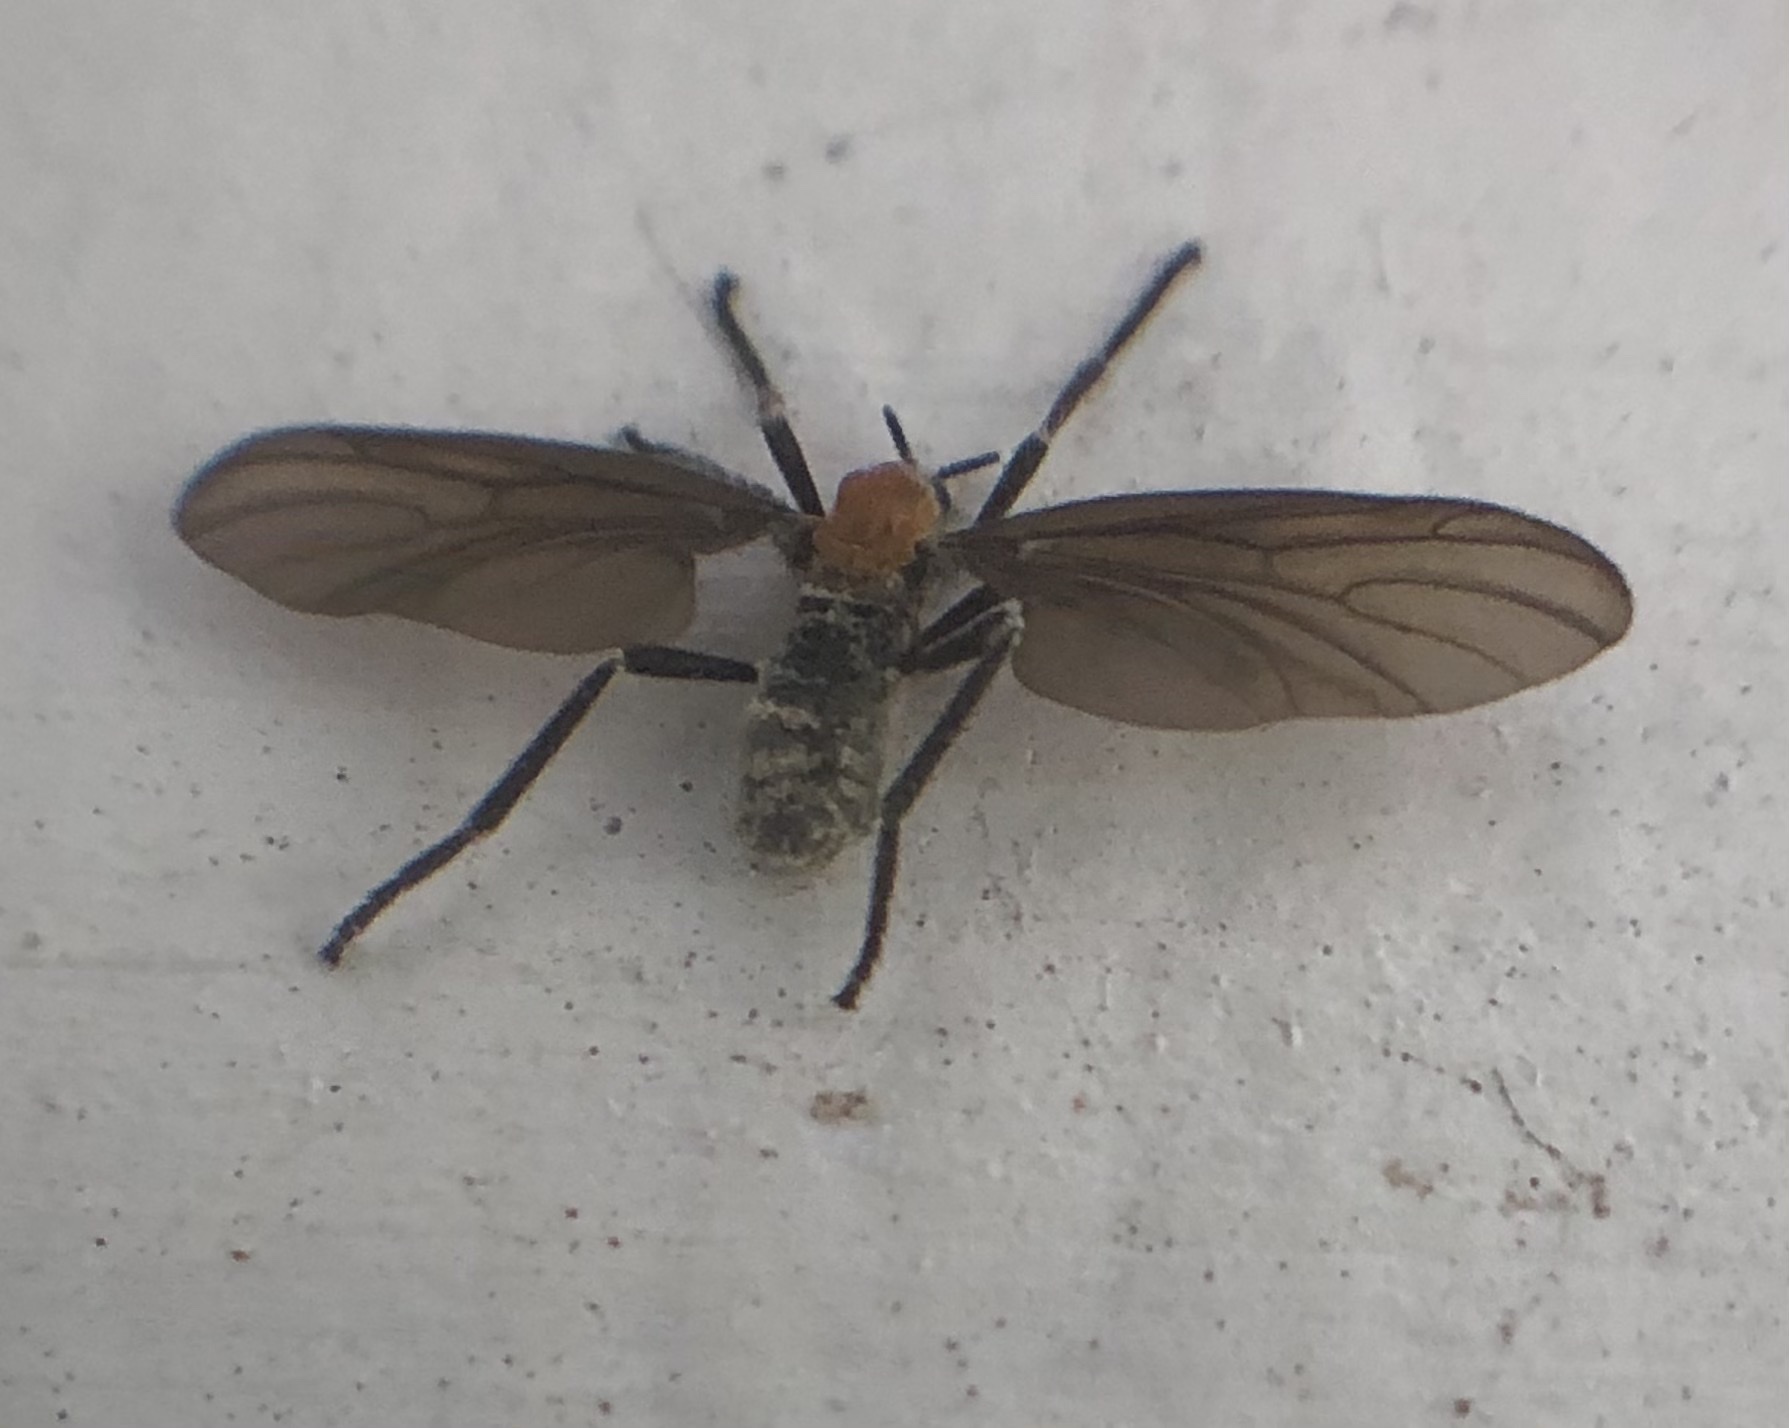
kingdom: Animalia
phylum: Arthropoda
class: Insecta
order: Diptera
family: Bibionidae
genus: Plecia
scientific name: Plecia nearctica
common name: March fly
